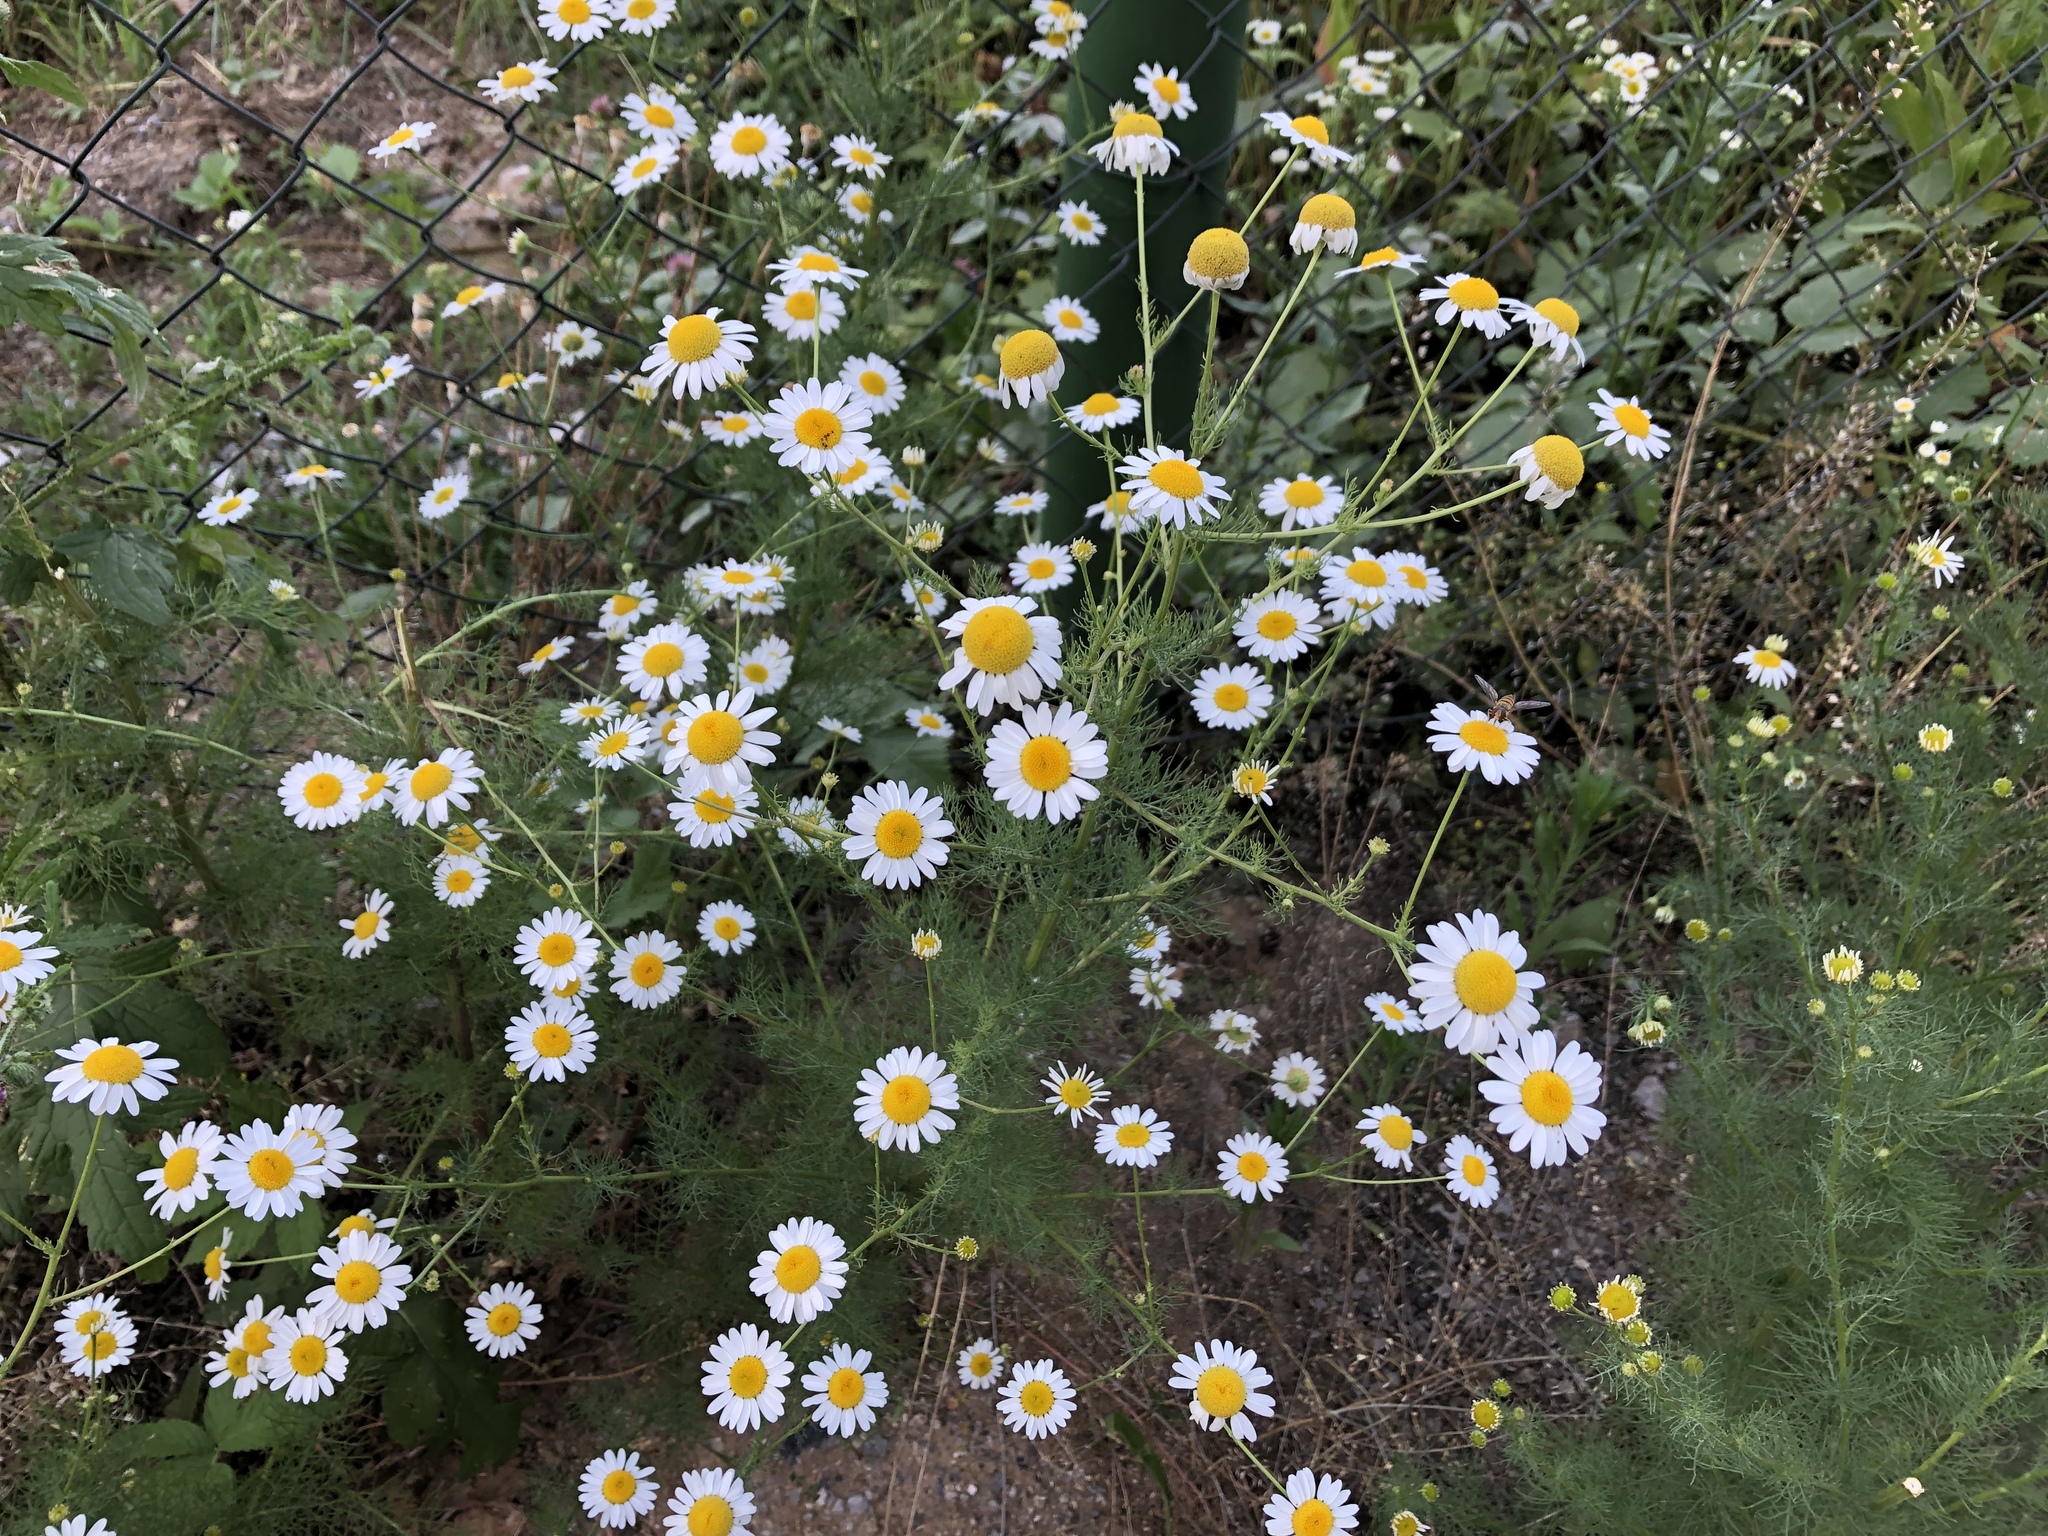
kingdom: Plantae
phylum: Tracheophyta
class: Magnoliopsida
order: Asterales
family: Asteraceae
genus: Tripleurospermum
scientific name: Tripleurospermum inodorum
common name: Scentless mayweed
